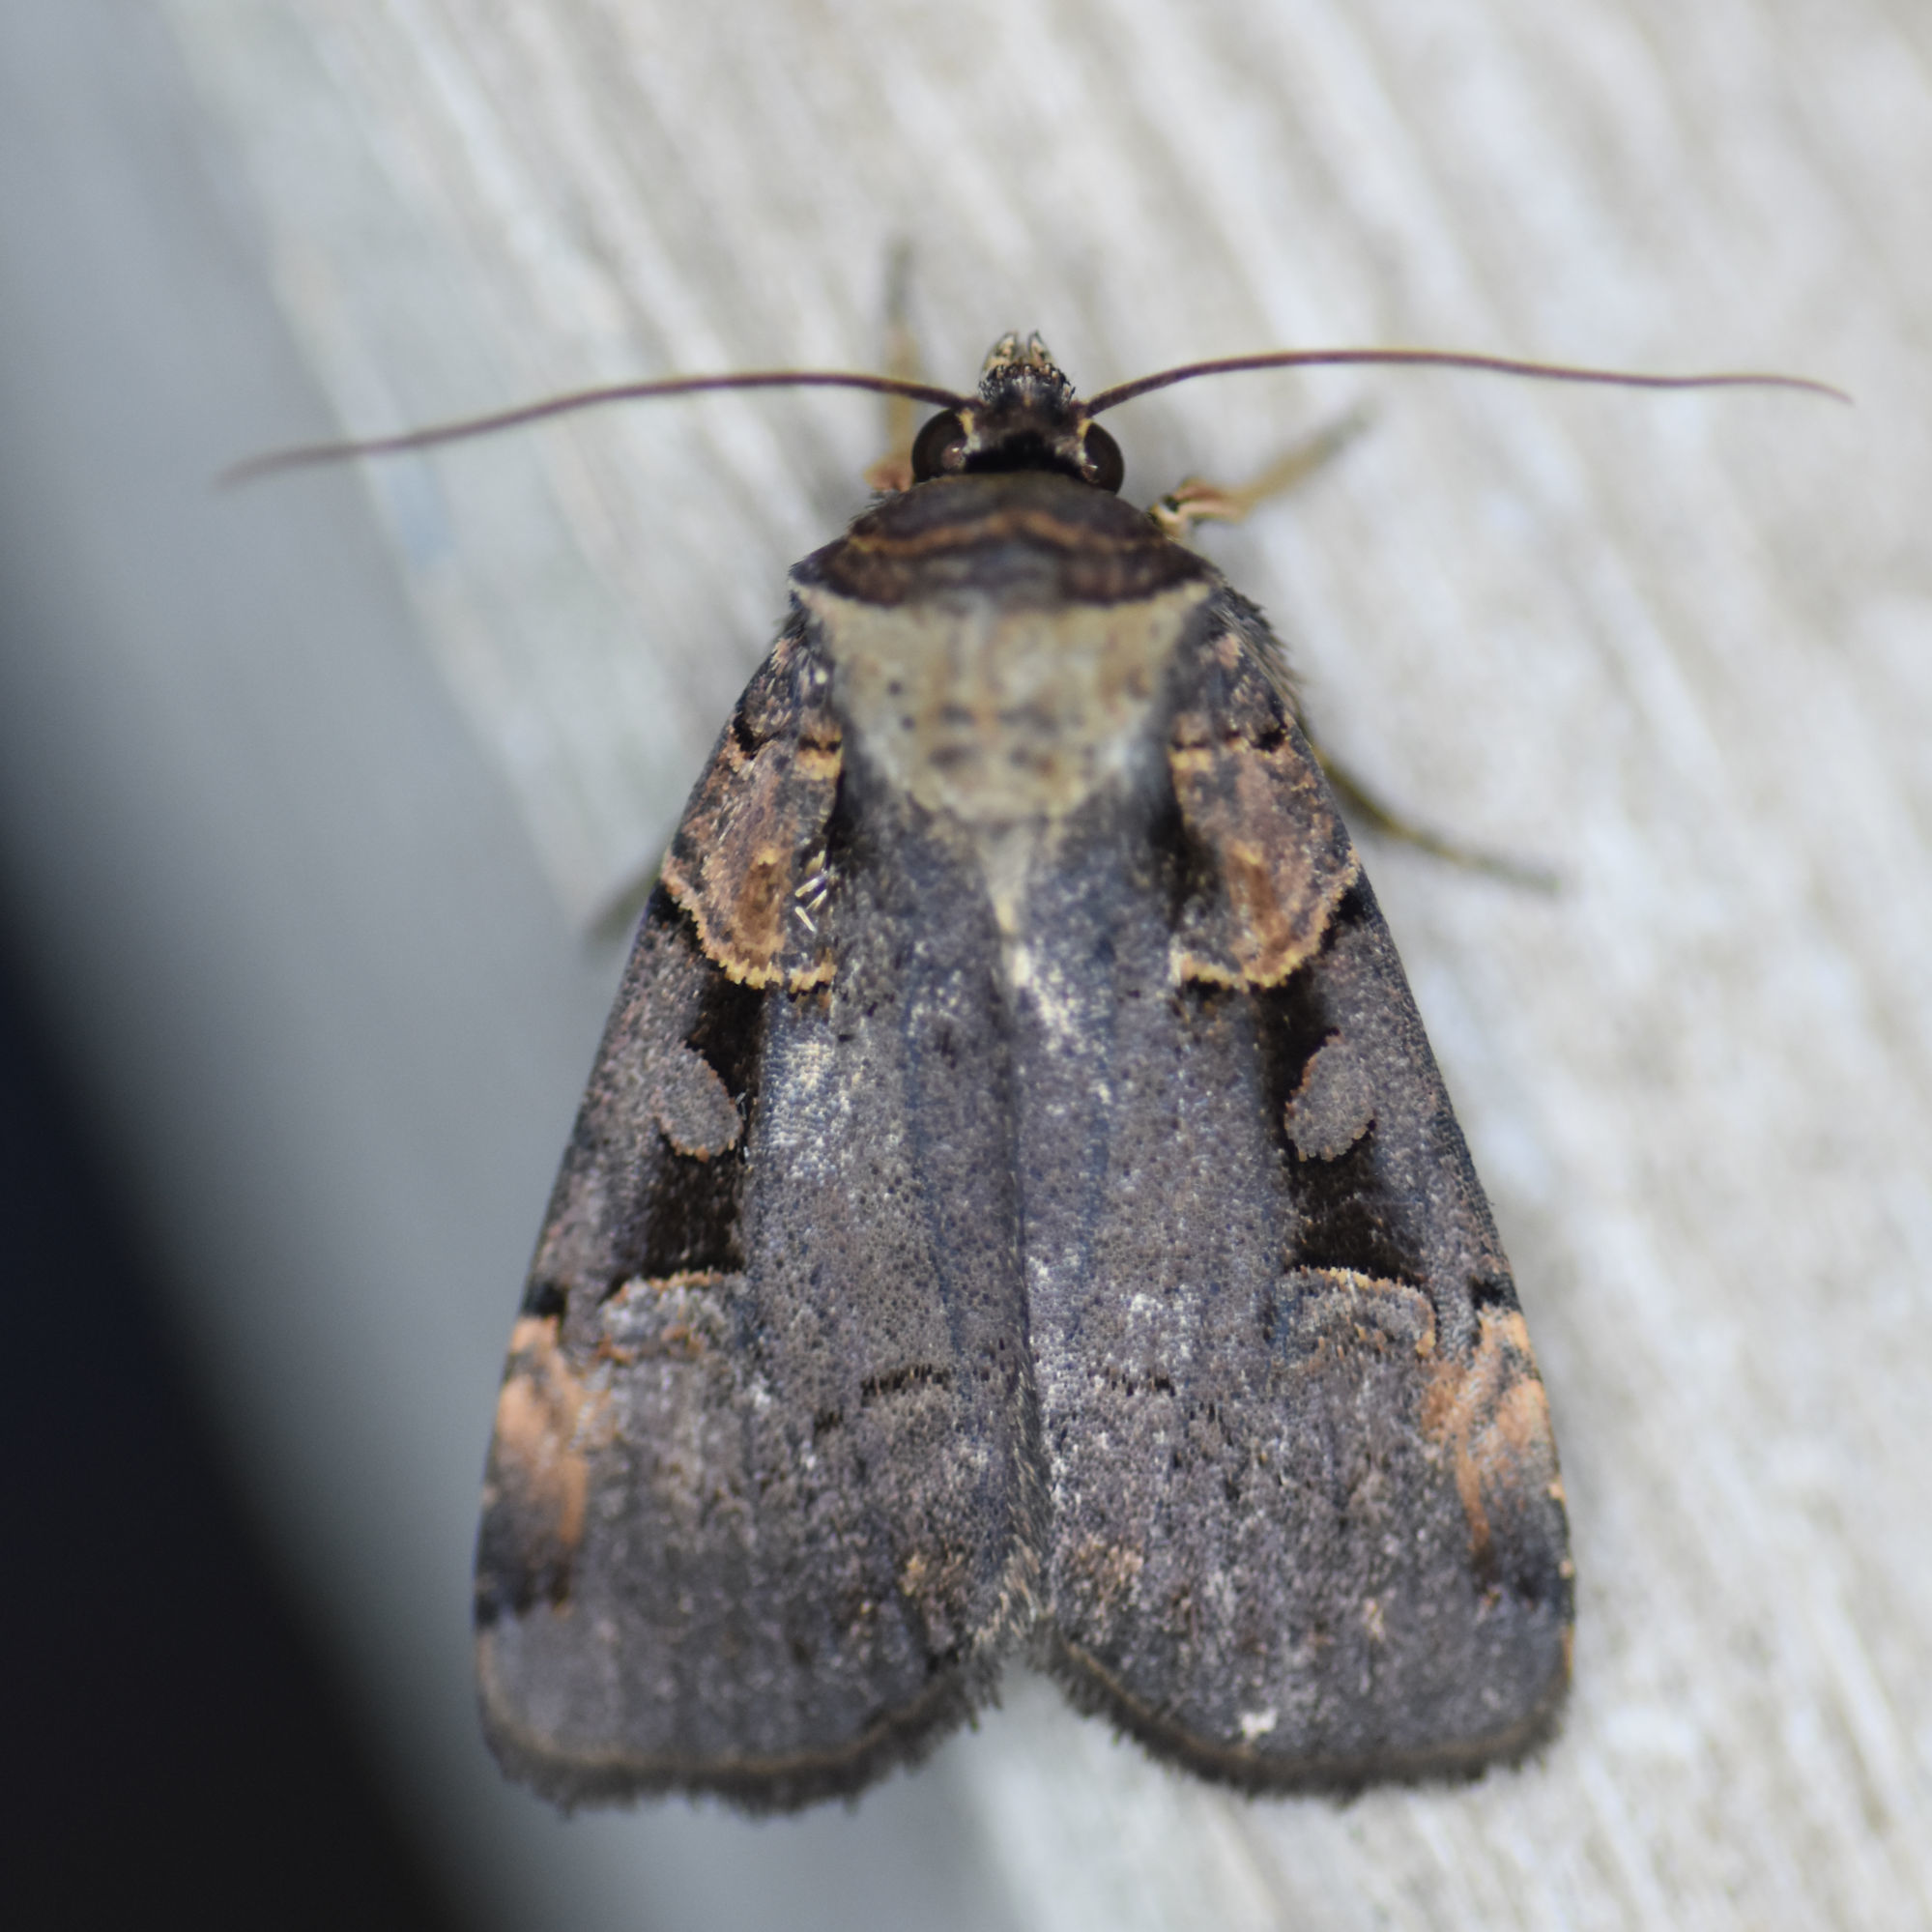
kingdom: Animalia
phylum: Arthropoda
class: Insecta
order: Lepidoptera
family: Noctuidae
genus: Pseudohermonassa
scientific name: Pseudohermonassa bicarnea
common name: Pink spotted dart
